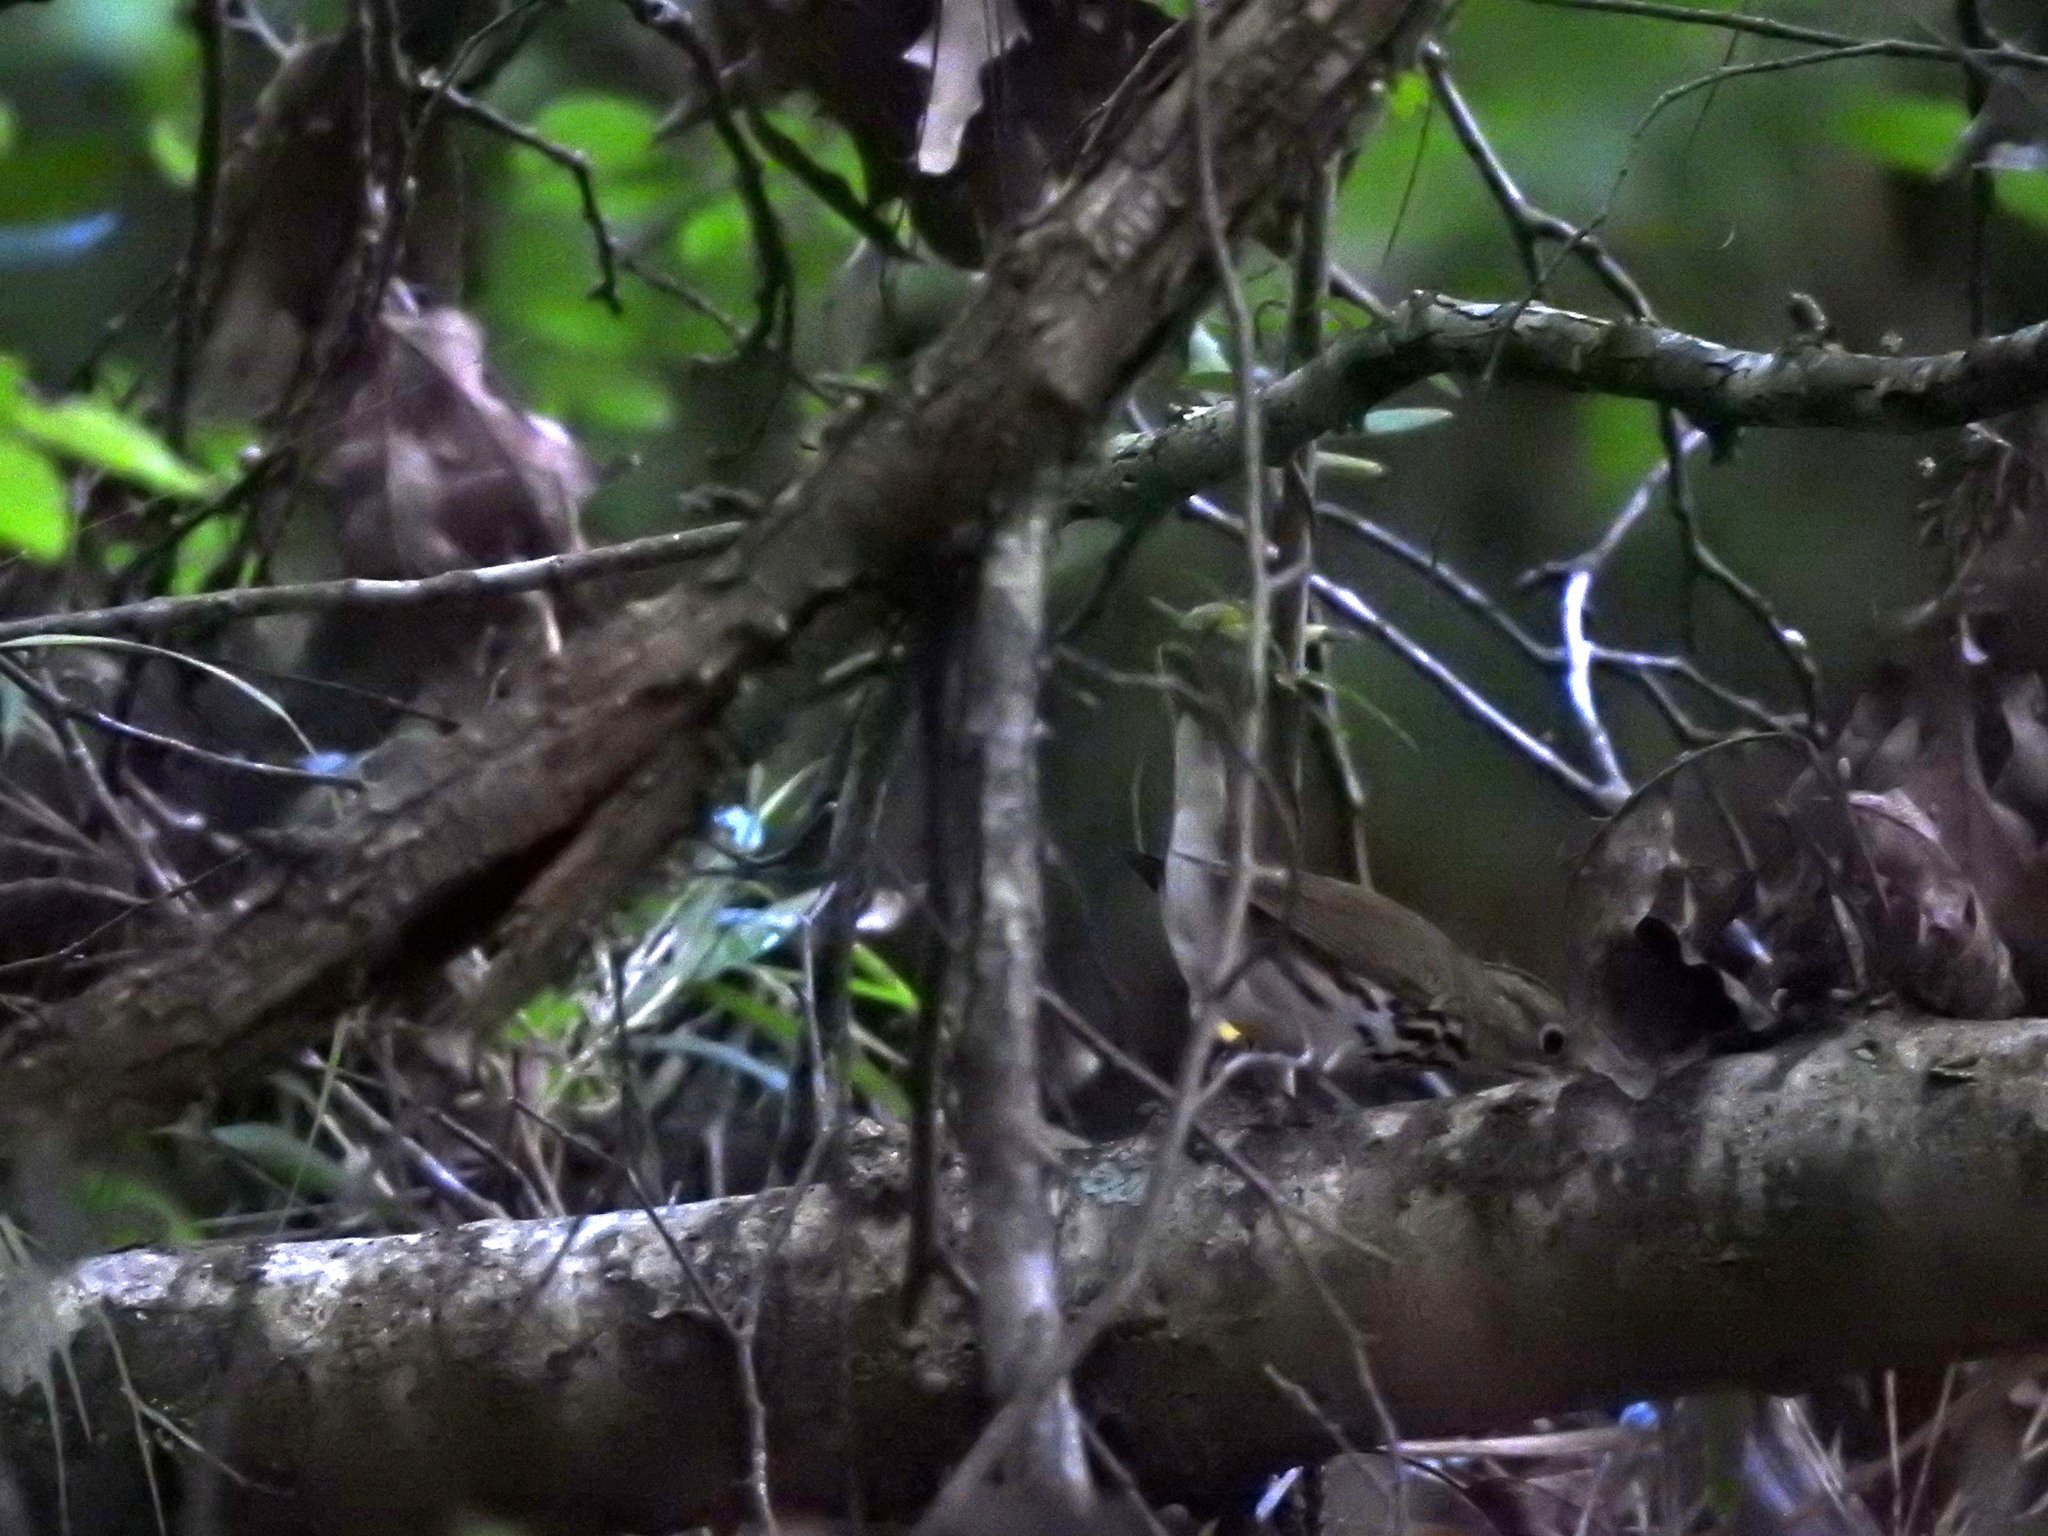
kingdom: Animalia
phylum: Chordata
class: Aves
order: Passeriformes
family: Parulidae
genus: Seiurus
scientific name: Seiurus aurocapilla
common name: Ovenbird
